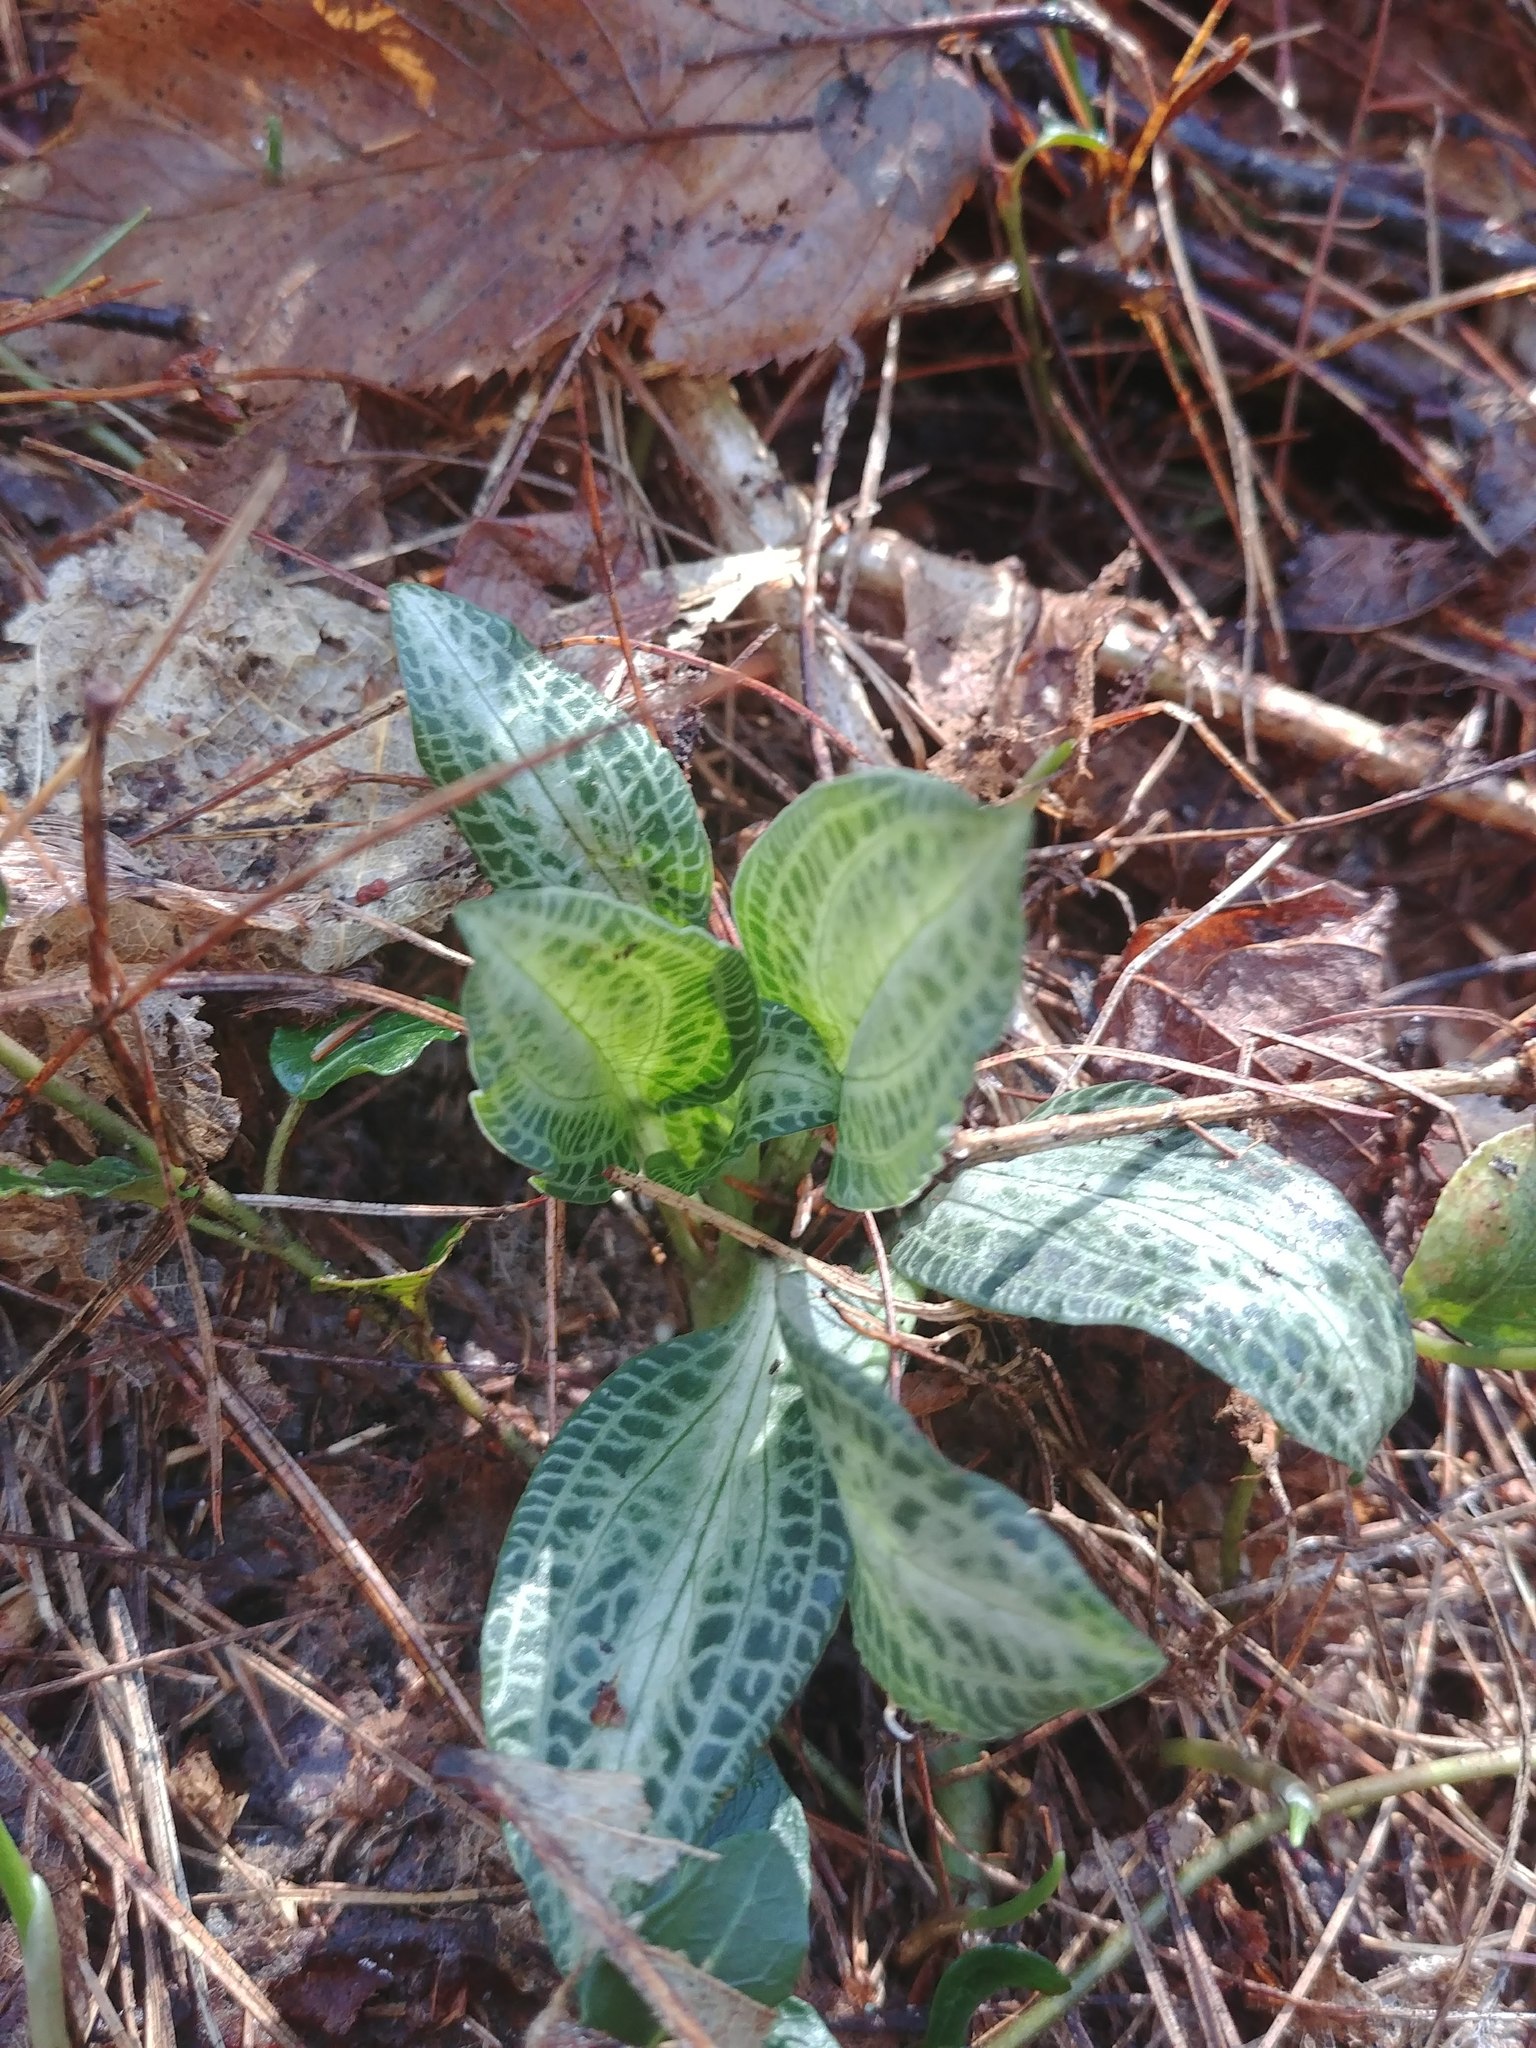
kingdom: Plantae
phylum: Tracheophyta
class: Liliopsida
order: Asparagales
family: Orchidaceae
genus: Goodyera
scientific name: Goodyera pubescens
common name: Downy rattlesnake-plantain
